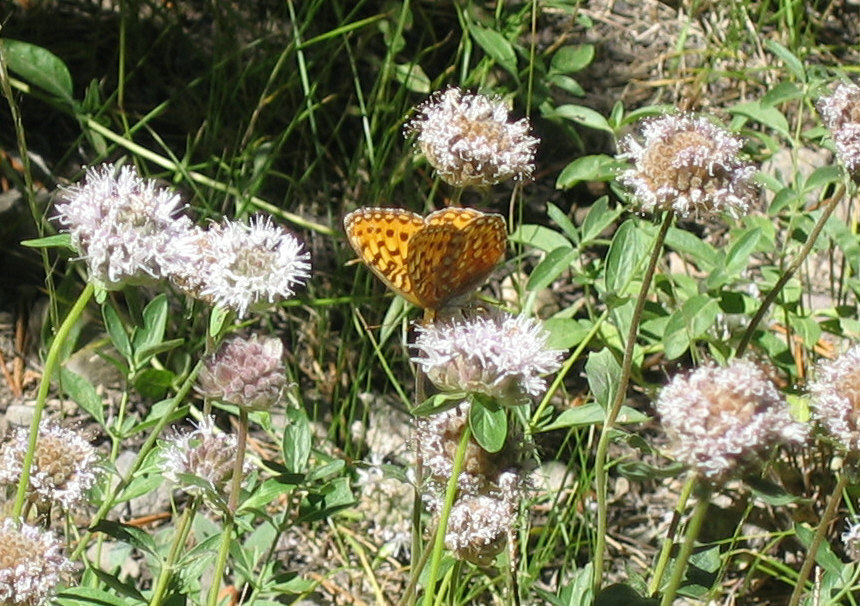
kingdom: Animalia
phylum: Arthropoda
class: Insecta
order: Lepidoptera
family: Nymphalidae
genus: Speyeria
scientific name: Speyeria mormonia
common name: Mormon fritillary
